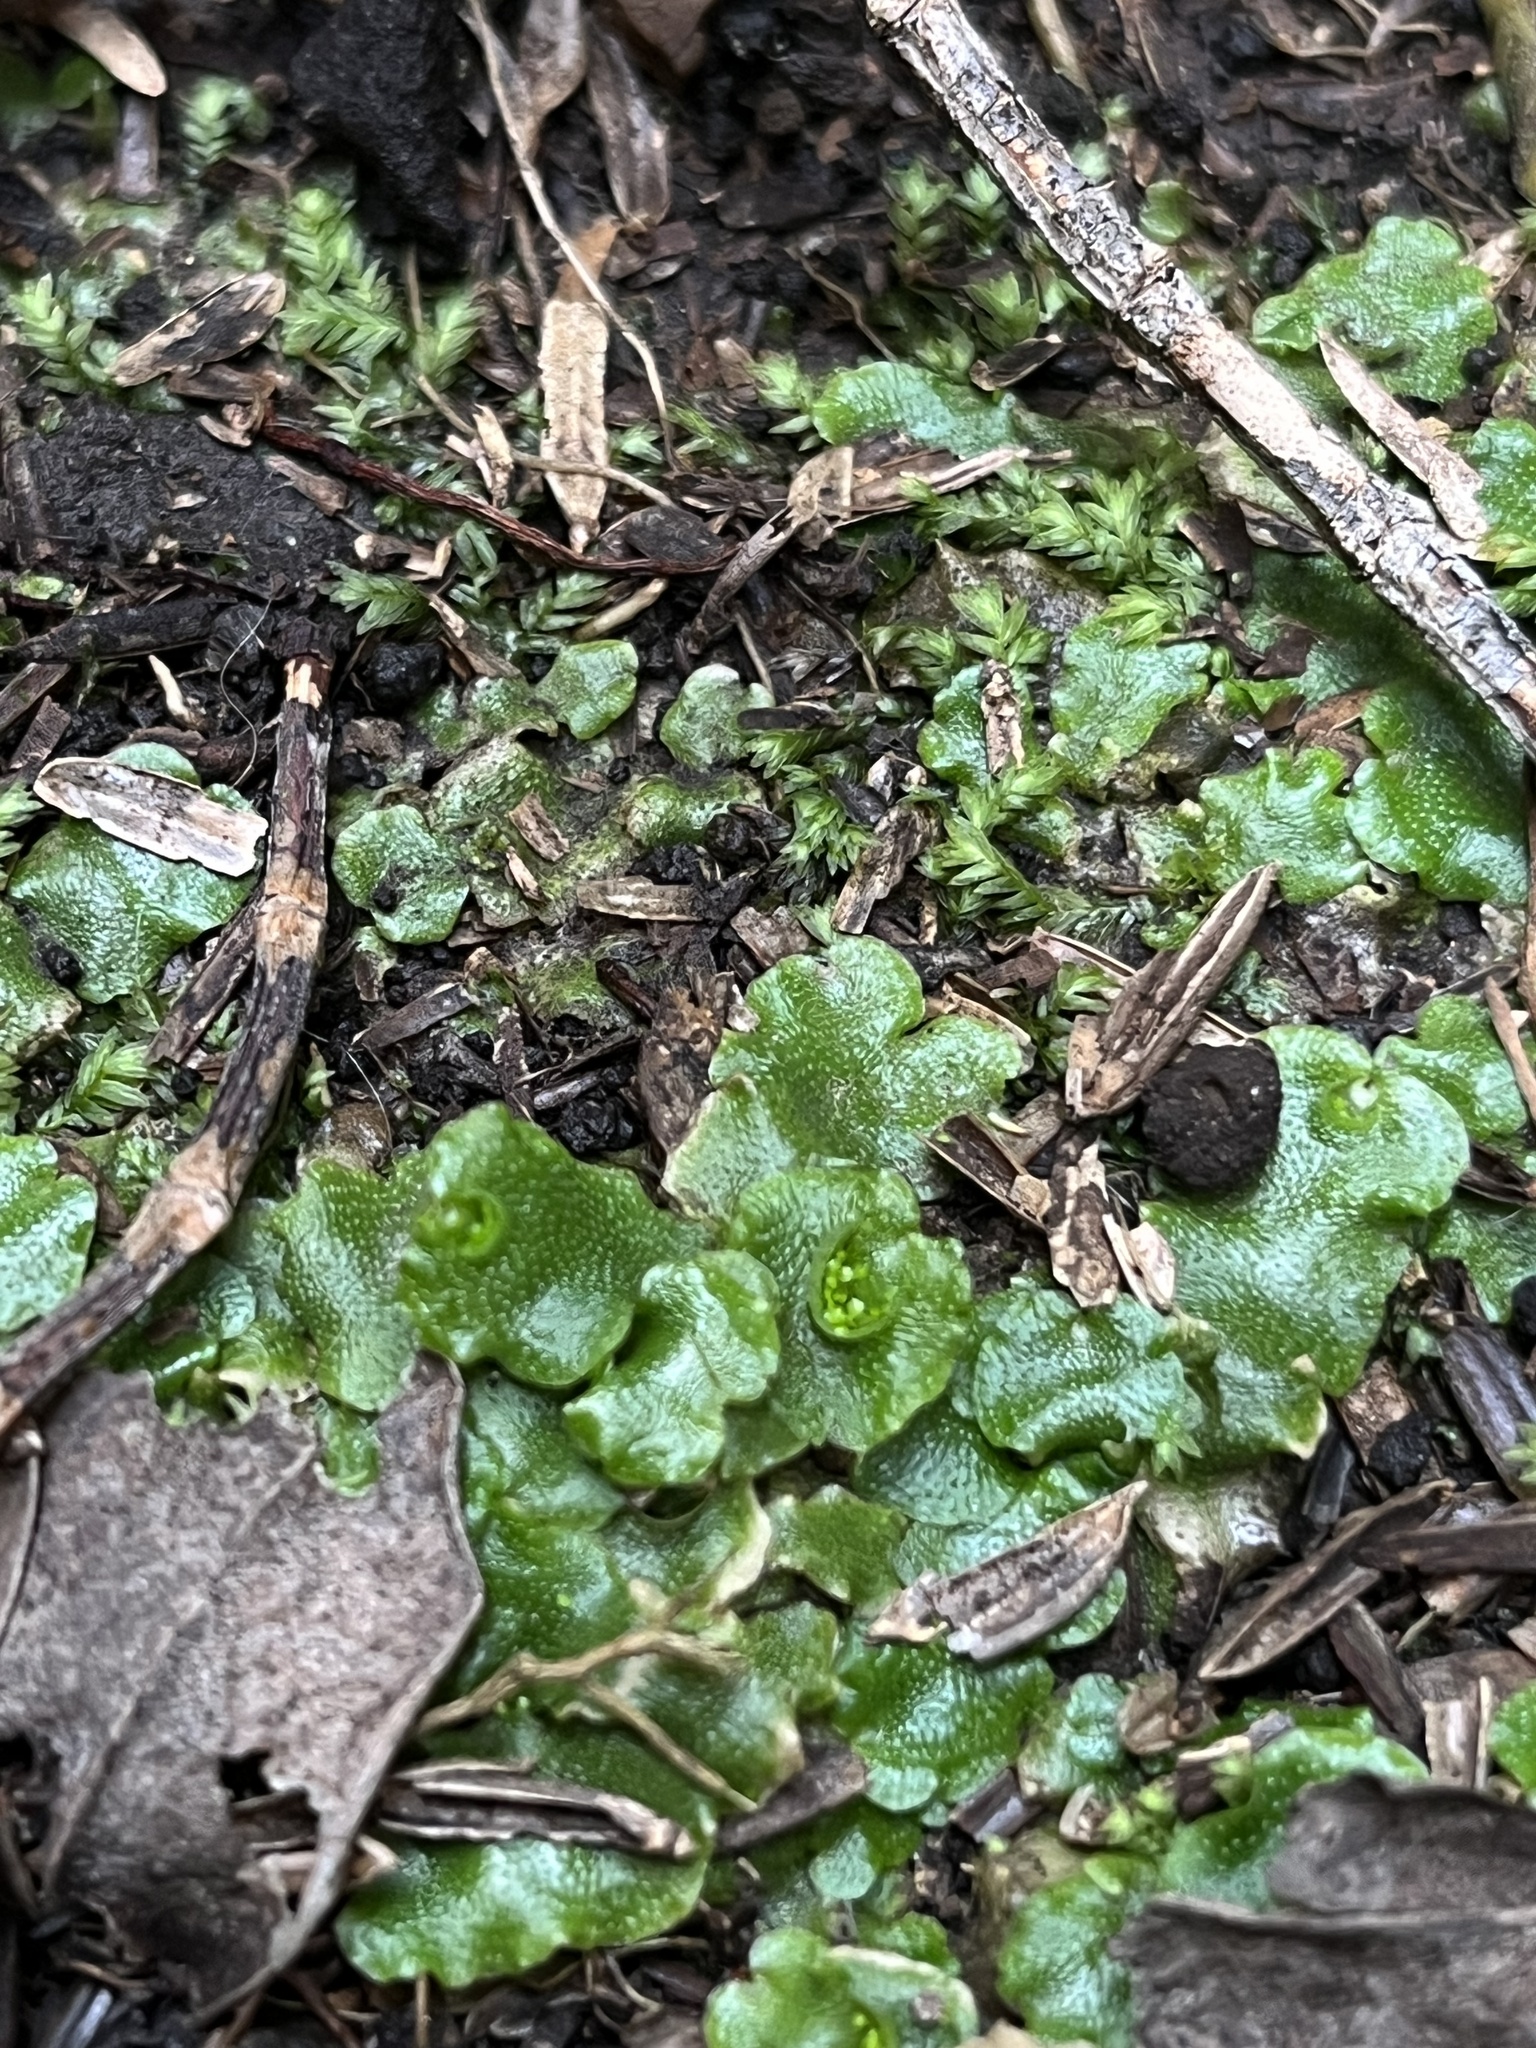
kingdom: Plantae
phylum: Marchantiophyta
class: Marchantiopsida
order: Lunulariales
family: Lunulariaceae
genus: Lunularia
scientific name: Lunularia cruciata
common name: Crescent-cup liverwort
